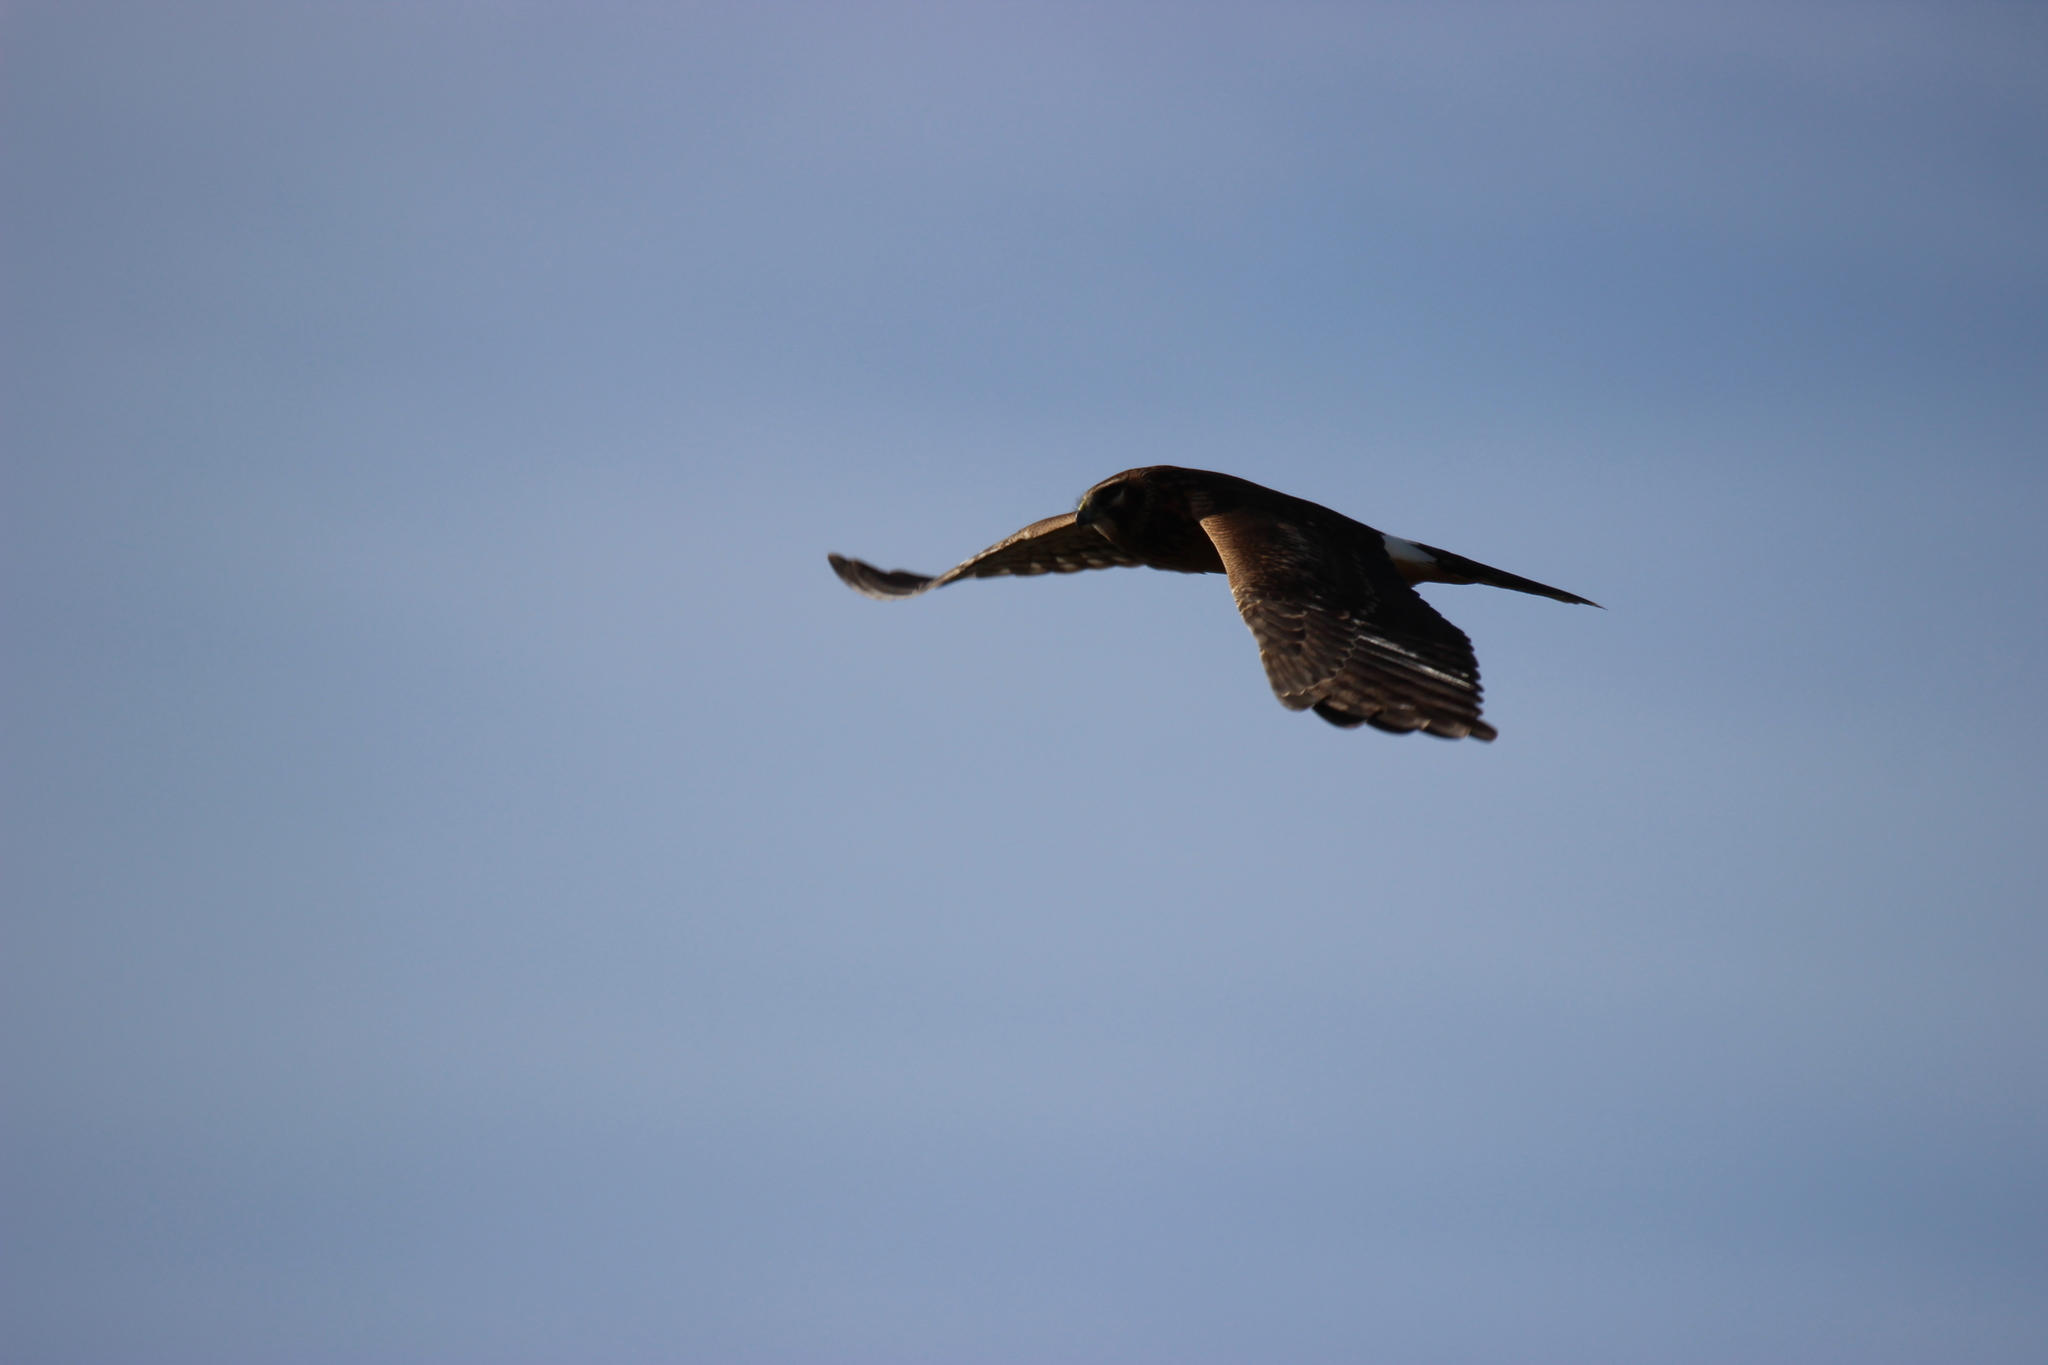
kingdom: Animalia
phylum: Chordata
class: Aves
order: Accipitriformes
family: Accipitridae
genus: Circus
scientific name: Circus cyaneus
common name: Hen harrier
